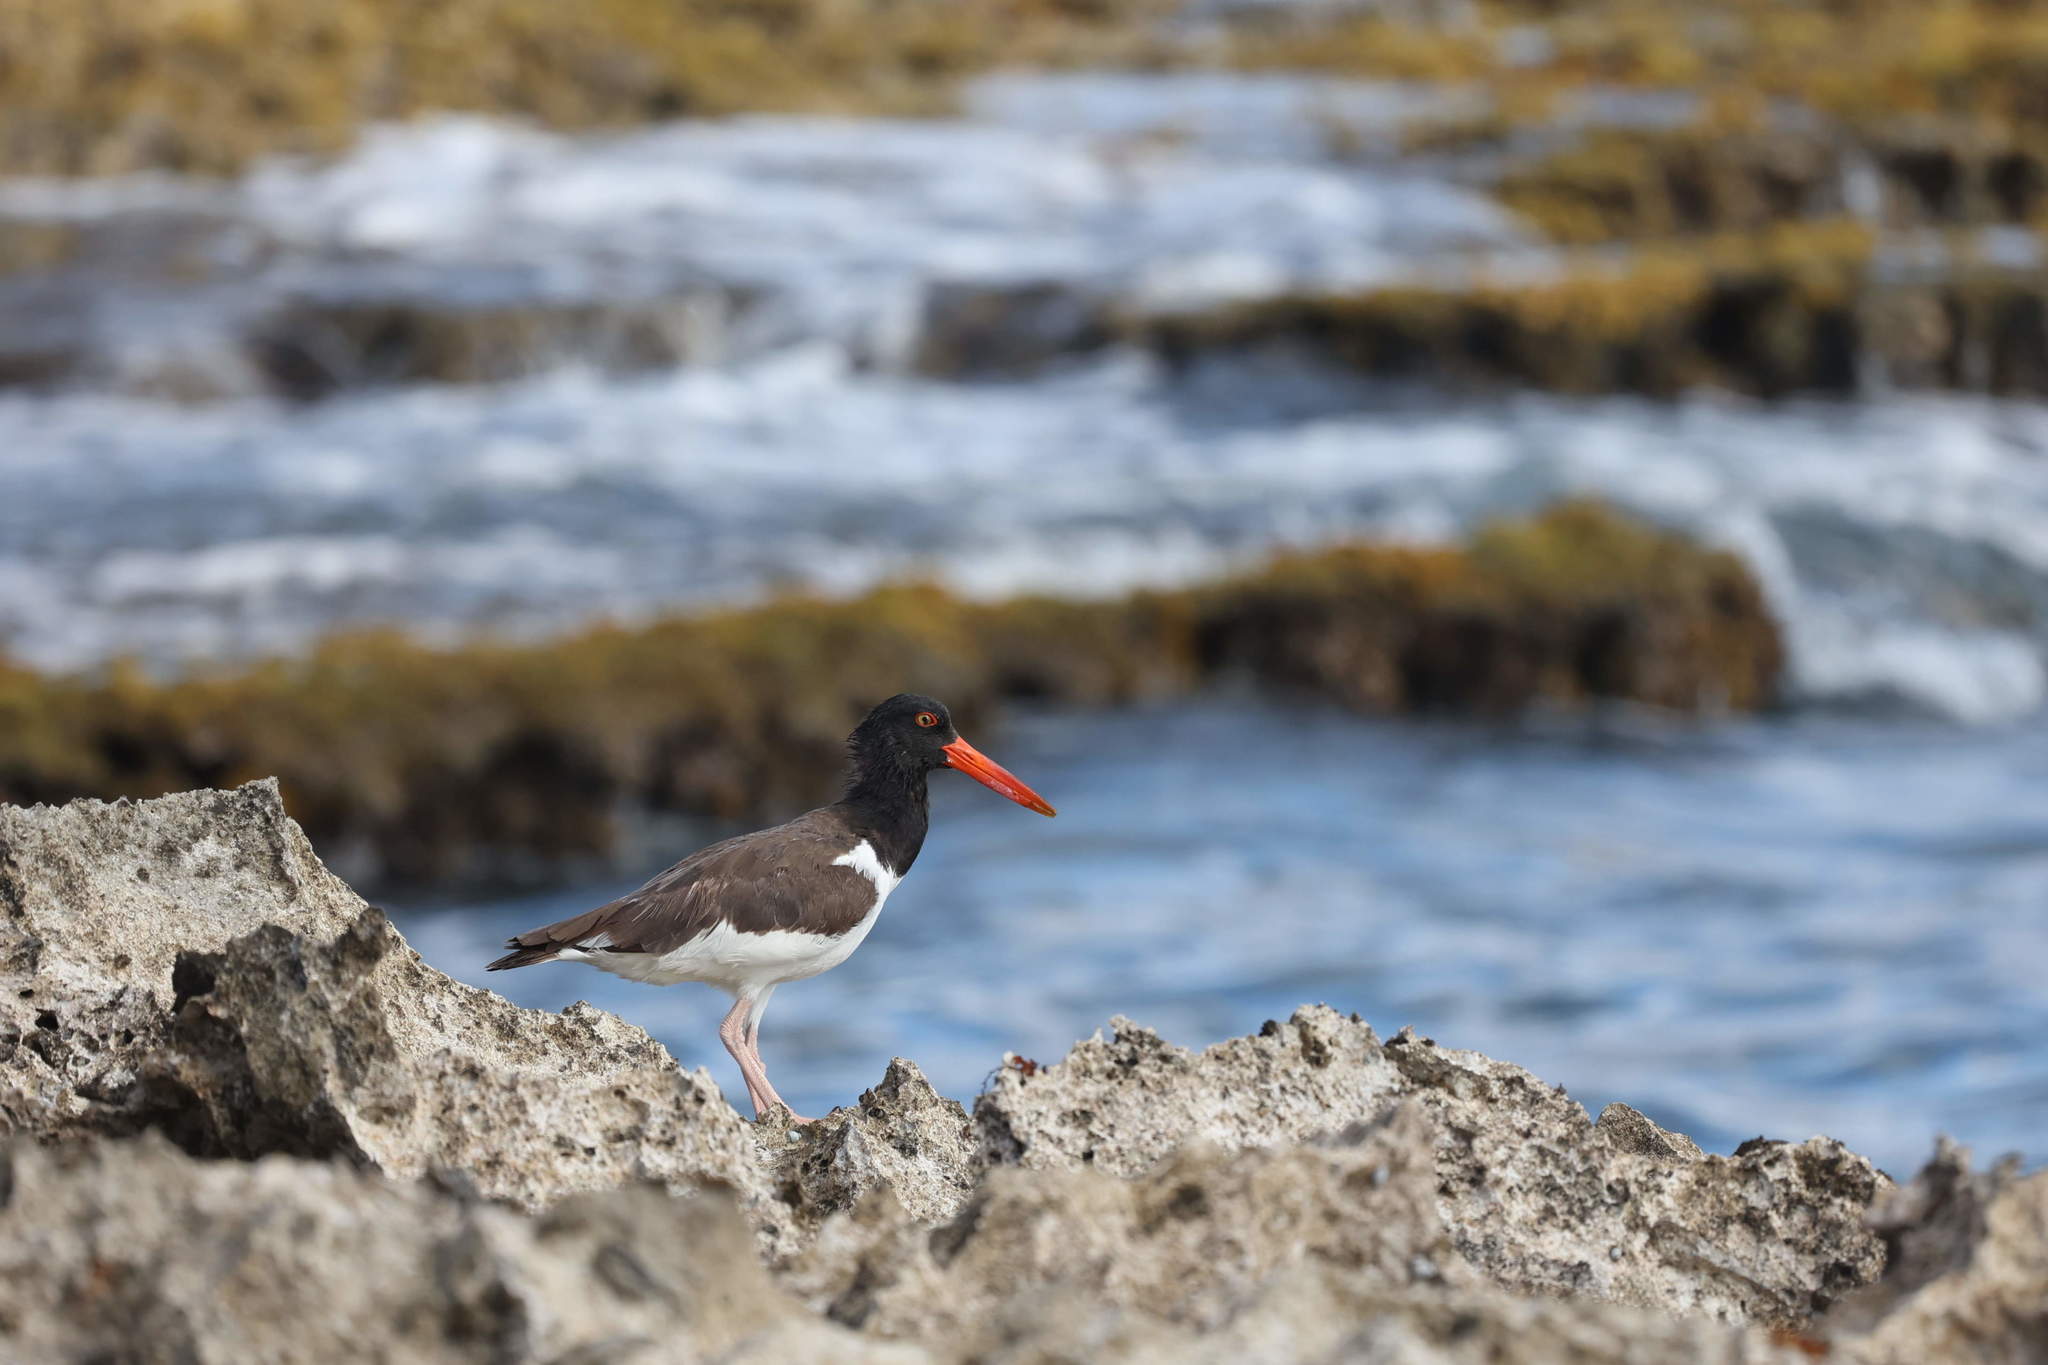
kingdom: Animalia
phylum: Chordata
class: Aves
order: Charadriiformes
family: Haematopodidae
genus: Haematopus
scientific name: Haematopus palliatus
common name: American oystercatcher
